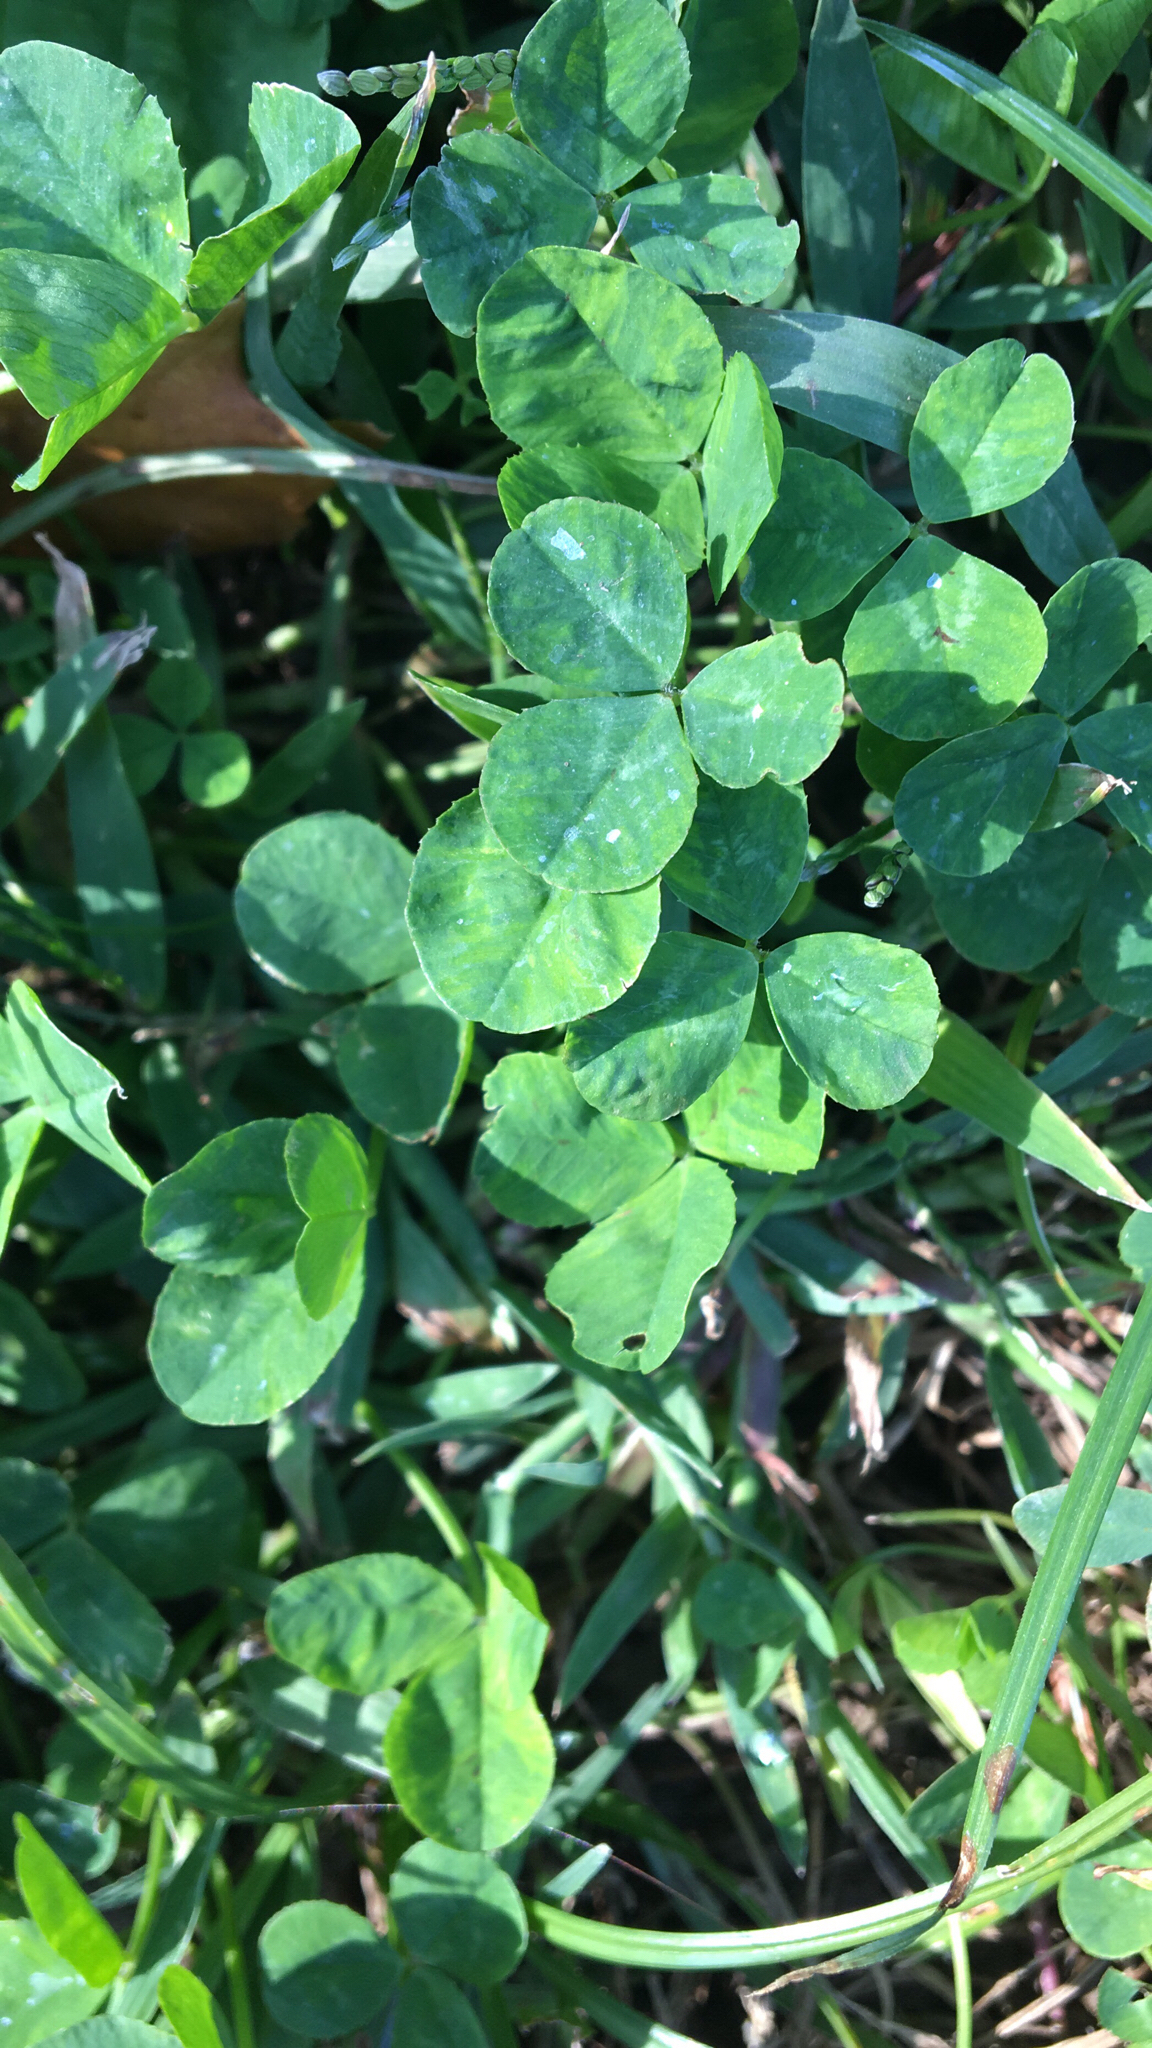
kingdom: Plantae
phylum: Tracheophyta
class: Magnoliopsida
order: Fabales
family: Fabaceae
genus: Trifolium
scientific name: Trifolium repens
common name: White clover
